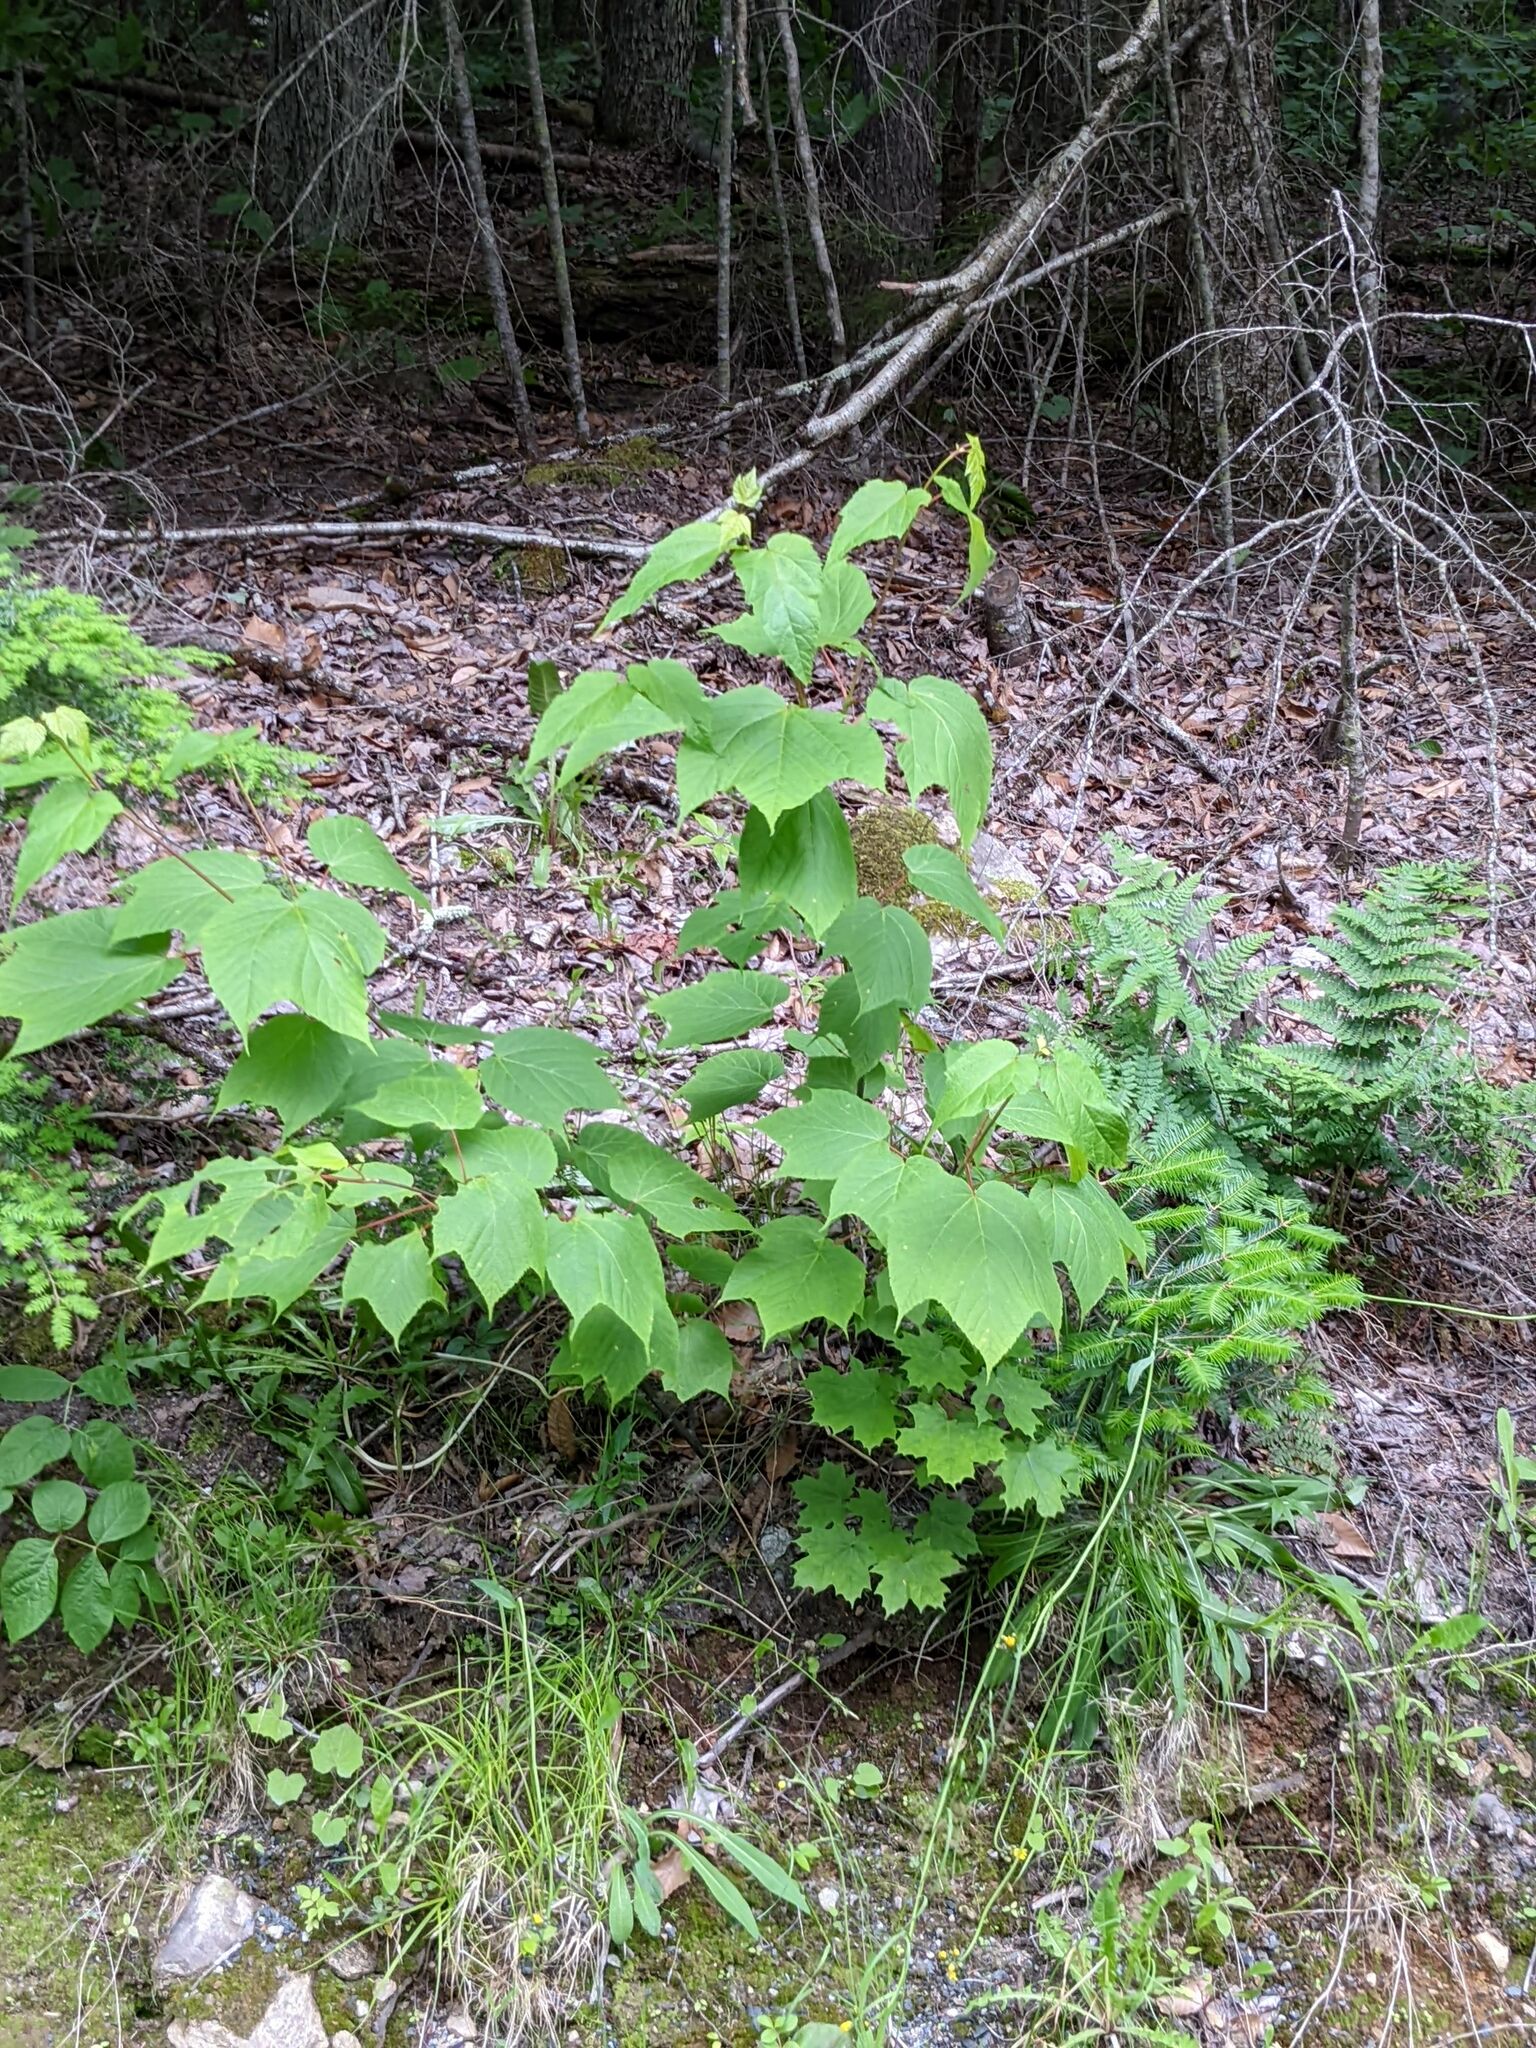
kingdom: Plantae
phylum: Tracheophyta
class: Magnoliopsida
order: Sapindales
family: Sapindaceae
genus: Acer
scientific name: Acer pensylvanicum
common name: Moosewood
